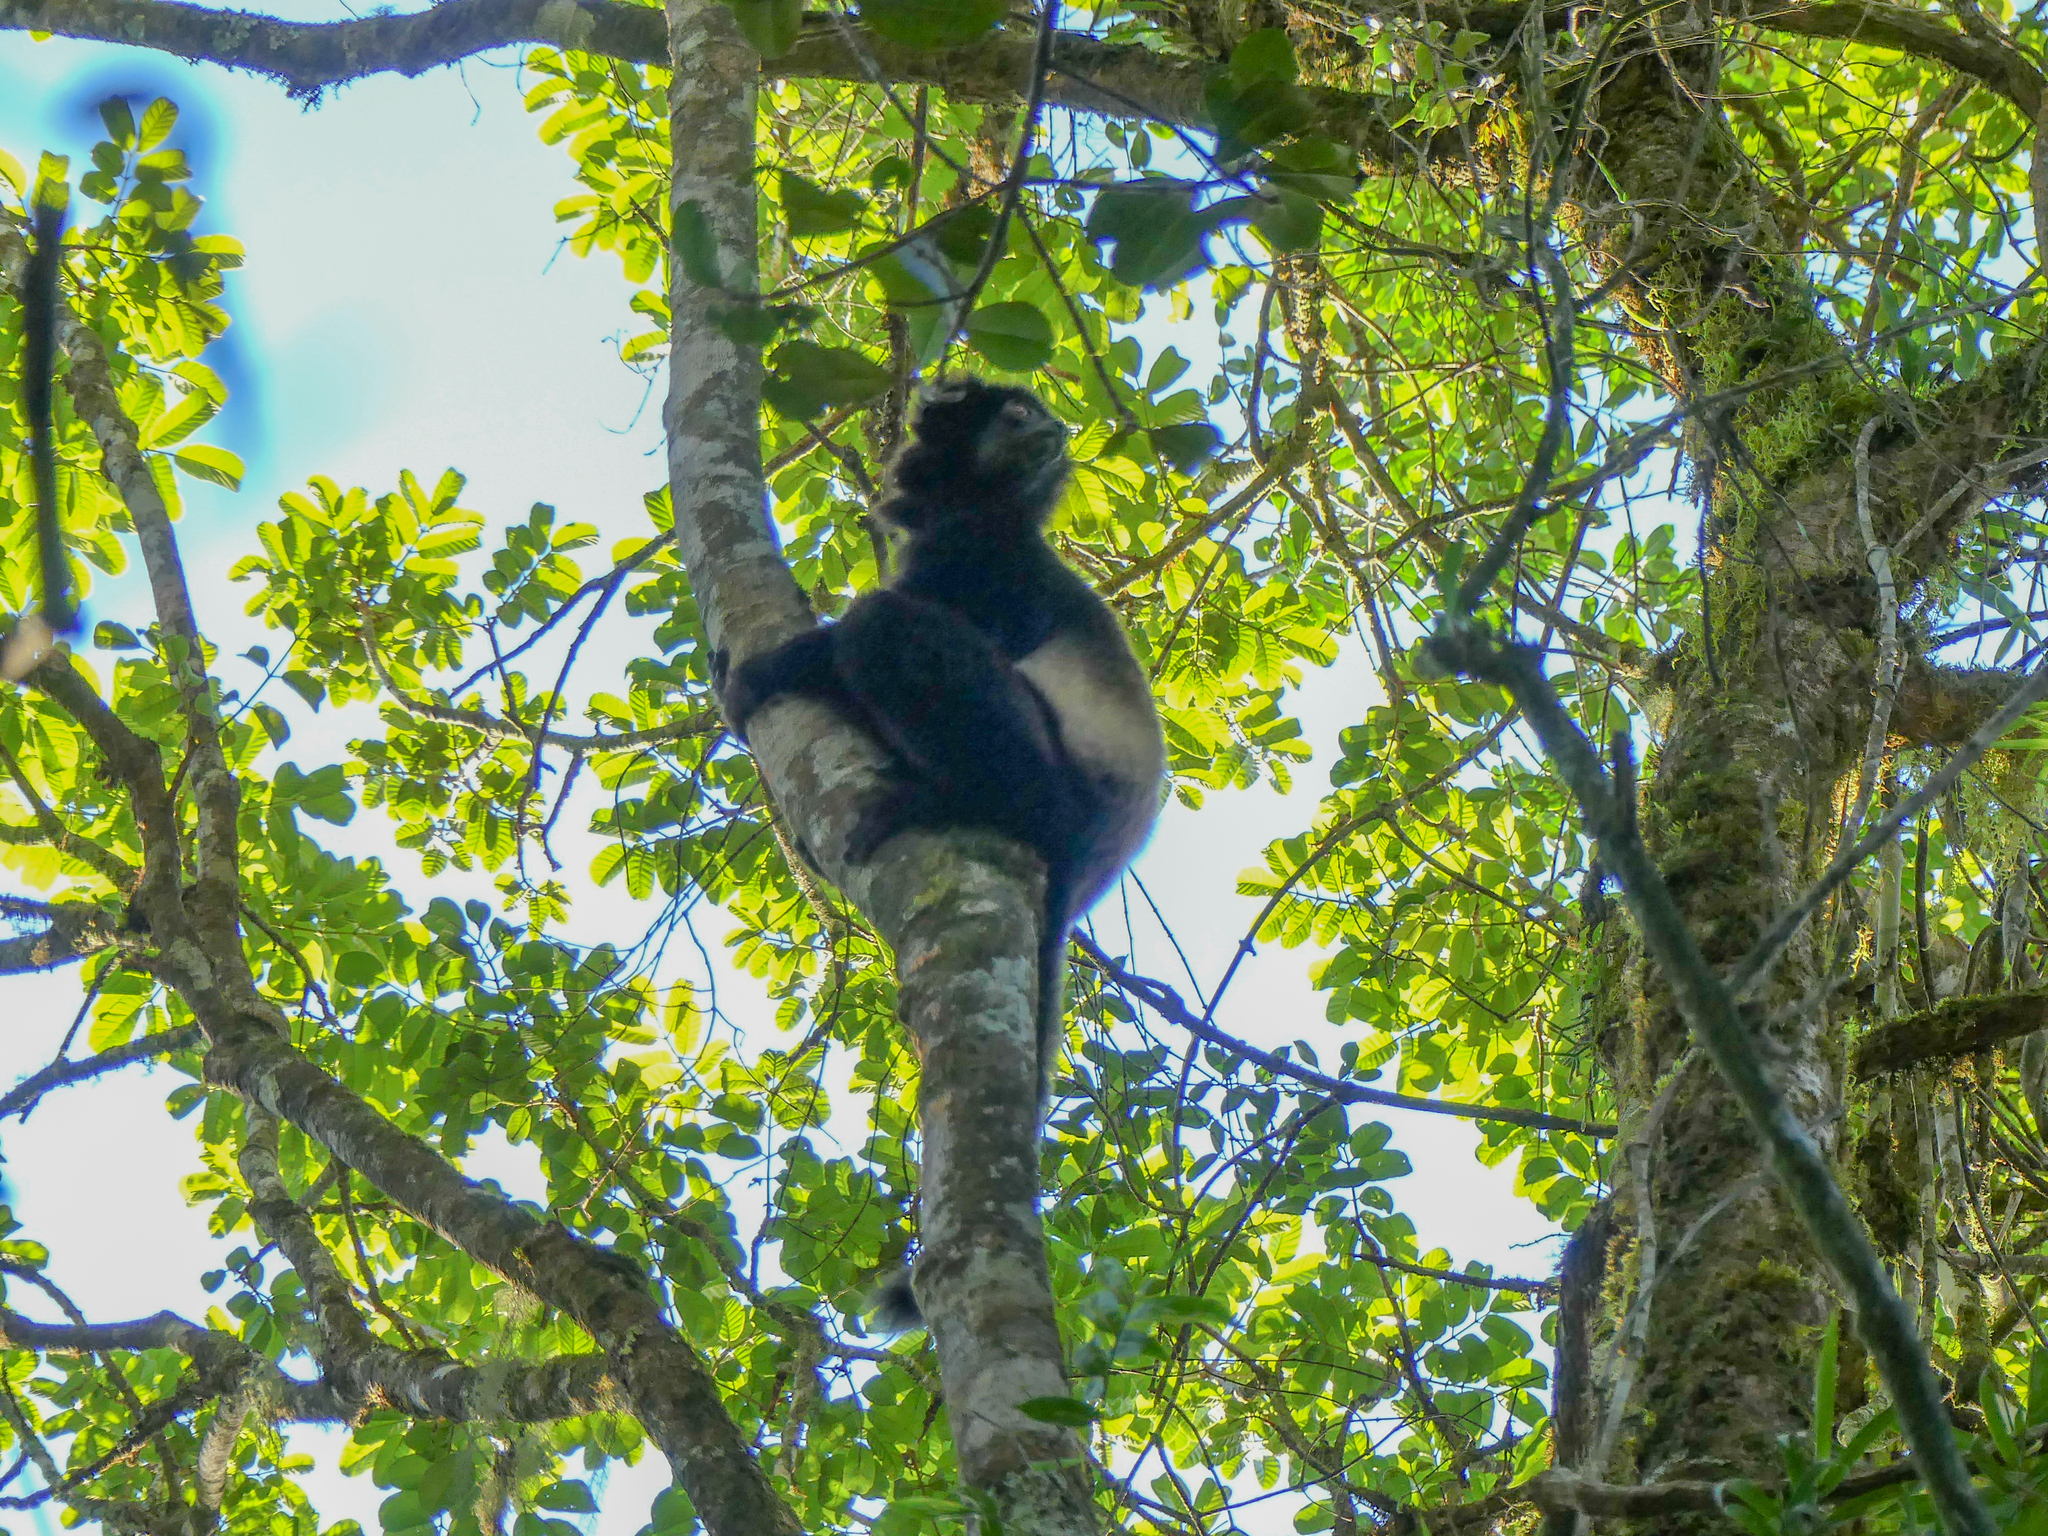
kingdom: Animalia
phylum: Chordata
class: Mammalia
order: Primates
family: Indriidae
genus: Propithecus
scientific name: Propithecus edwardsi
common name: Milne-edwards’s simpona
